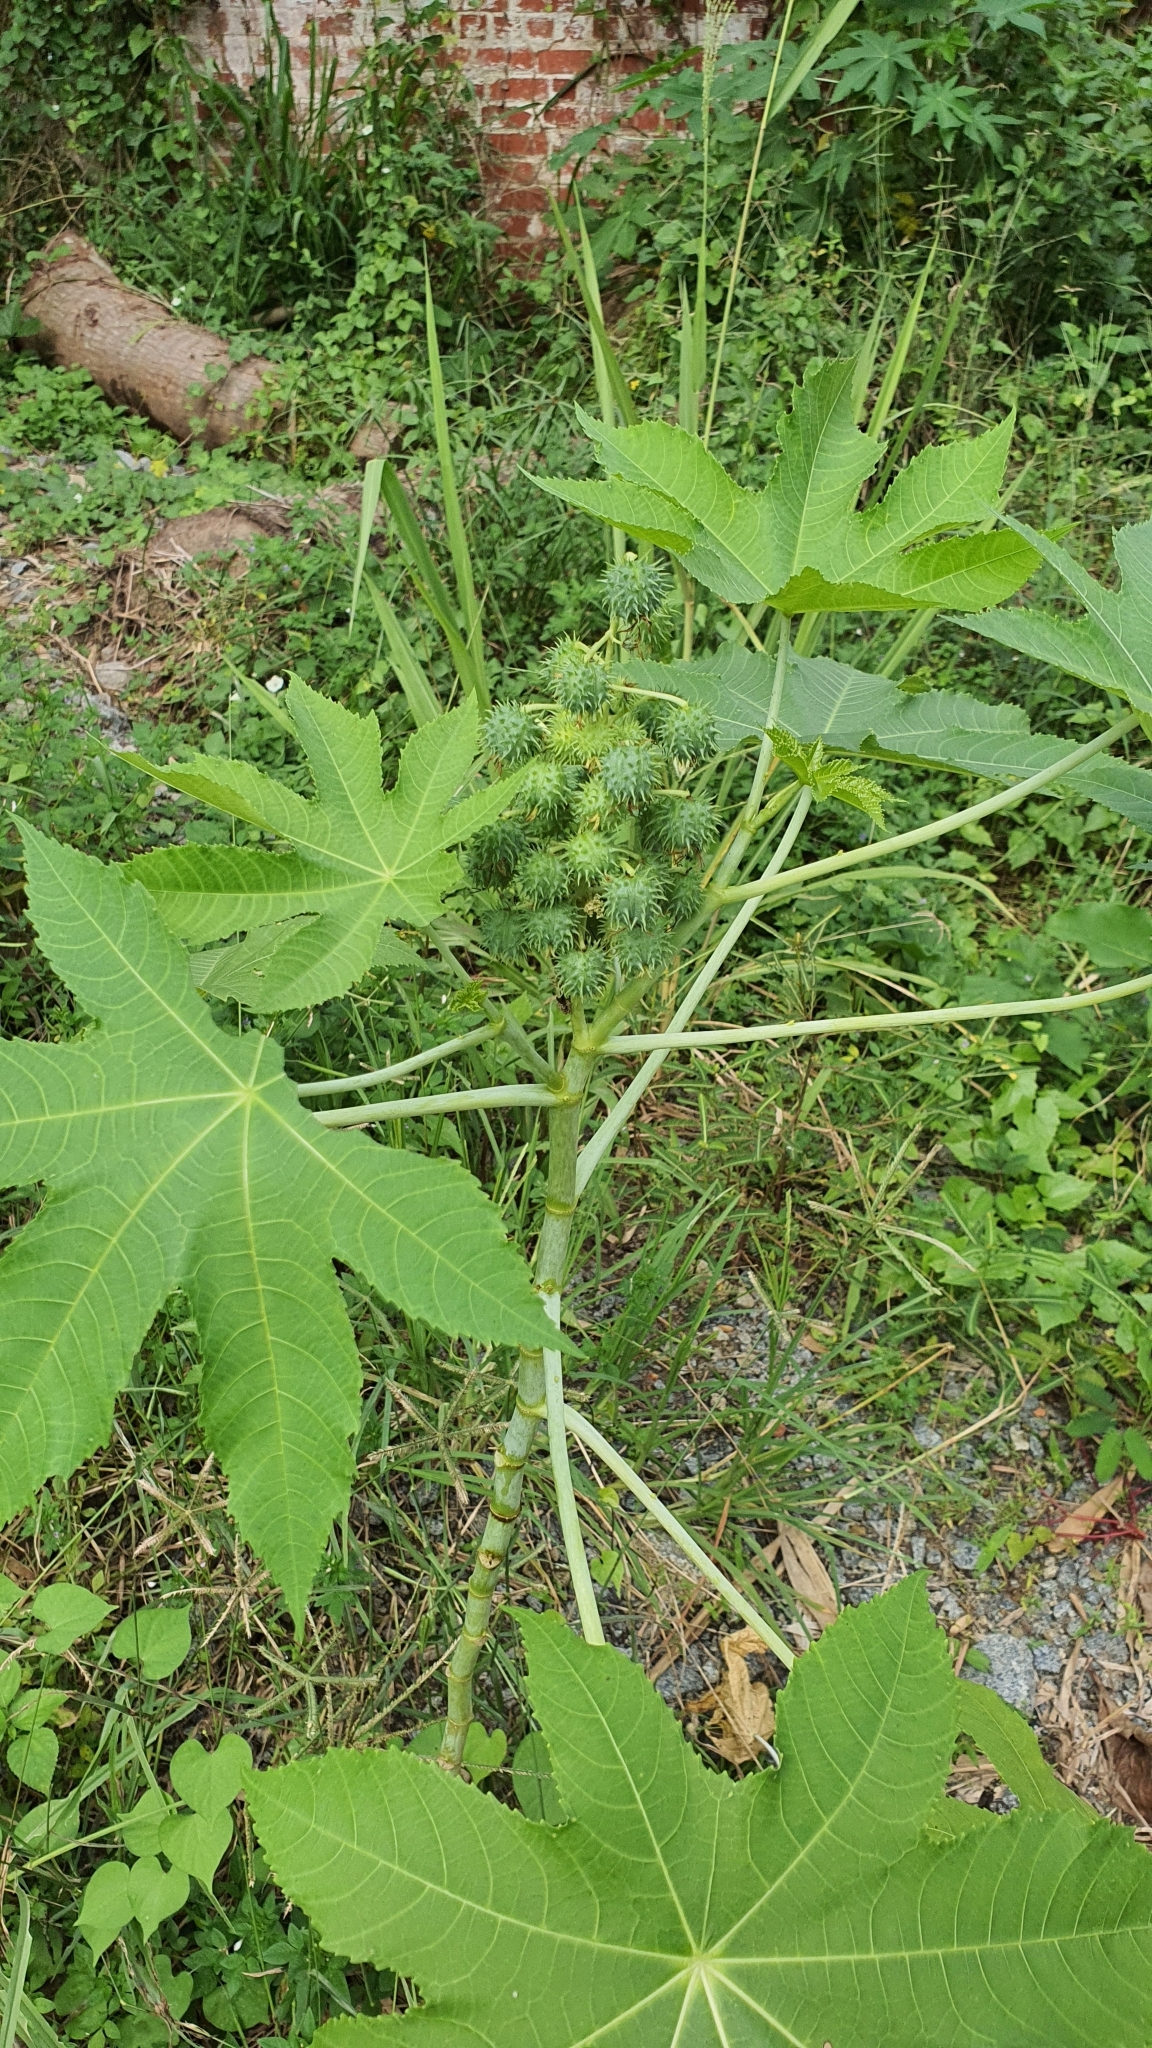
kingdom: Plantae
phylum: Tracheophyta
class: Magnoliopsida
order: Malpighiales
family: Euphorbiaceae
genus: Ricinus
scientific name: Ricinus communis
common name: Castor-oil-plant
